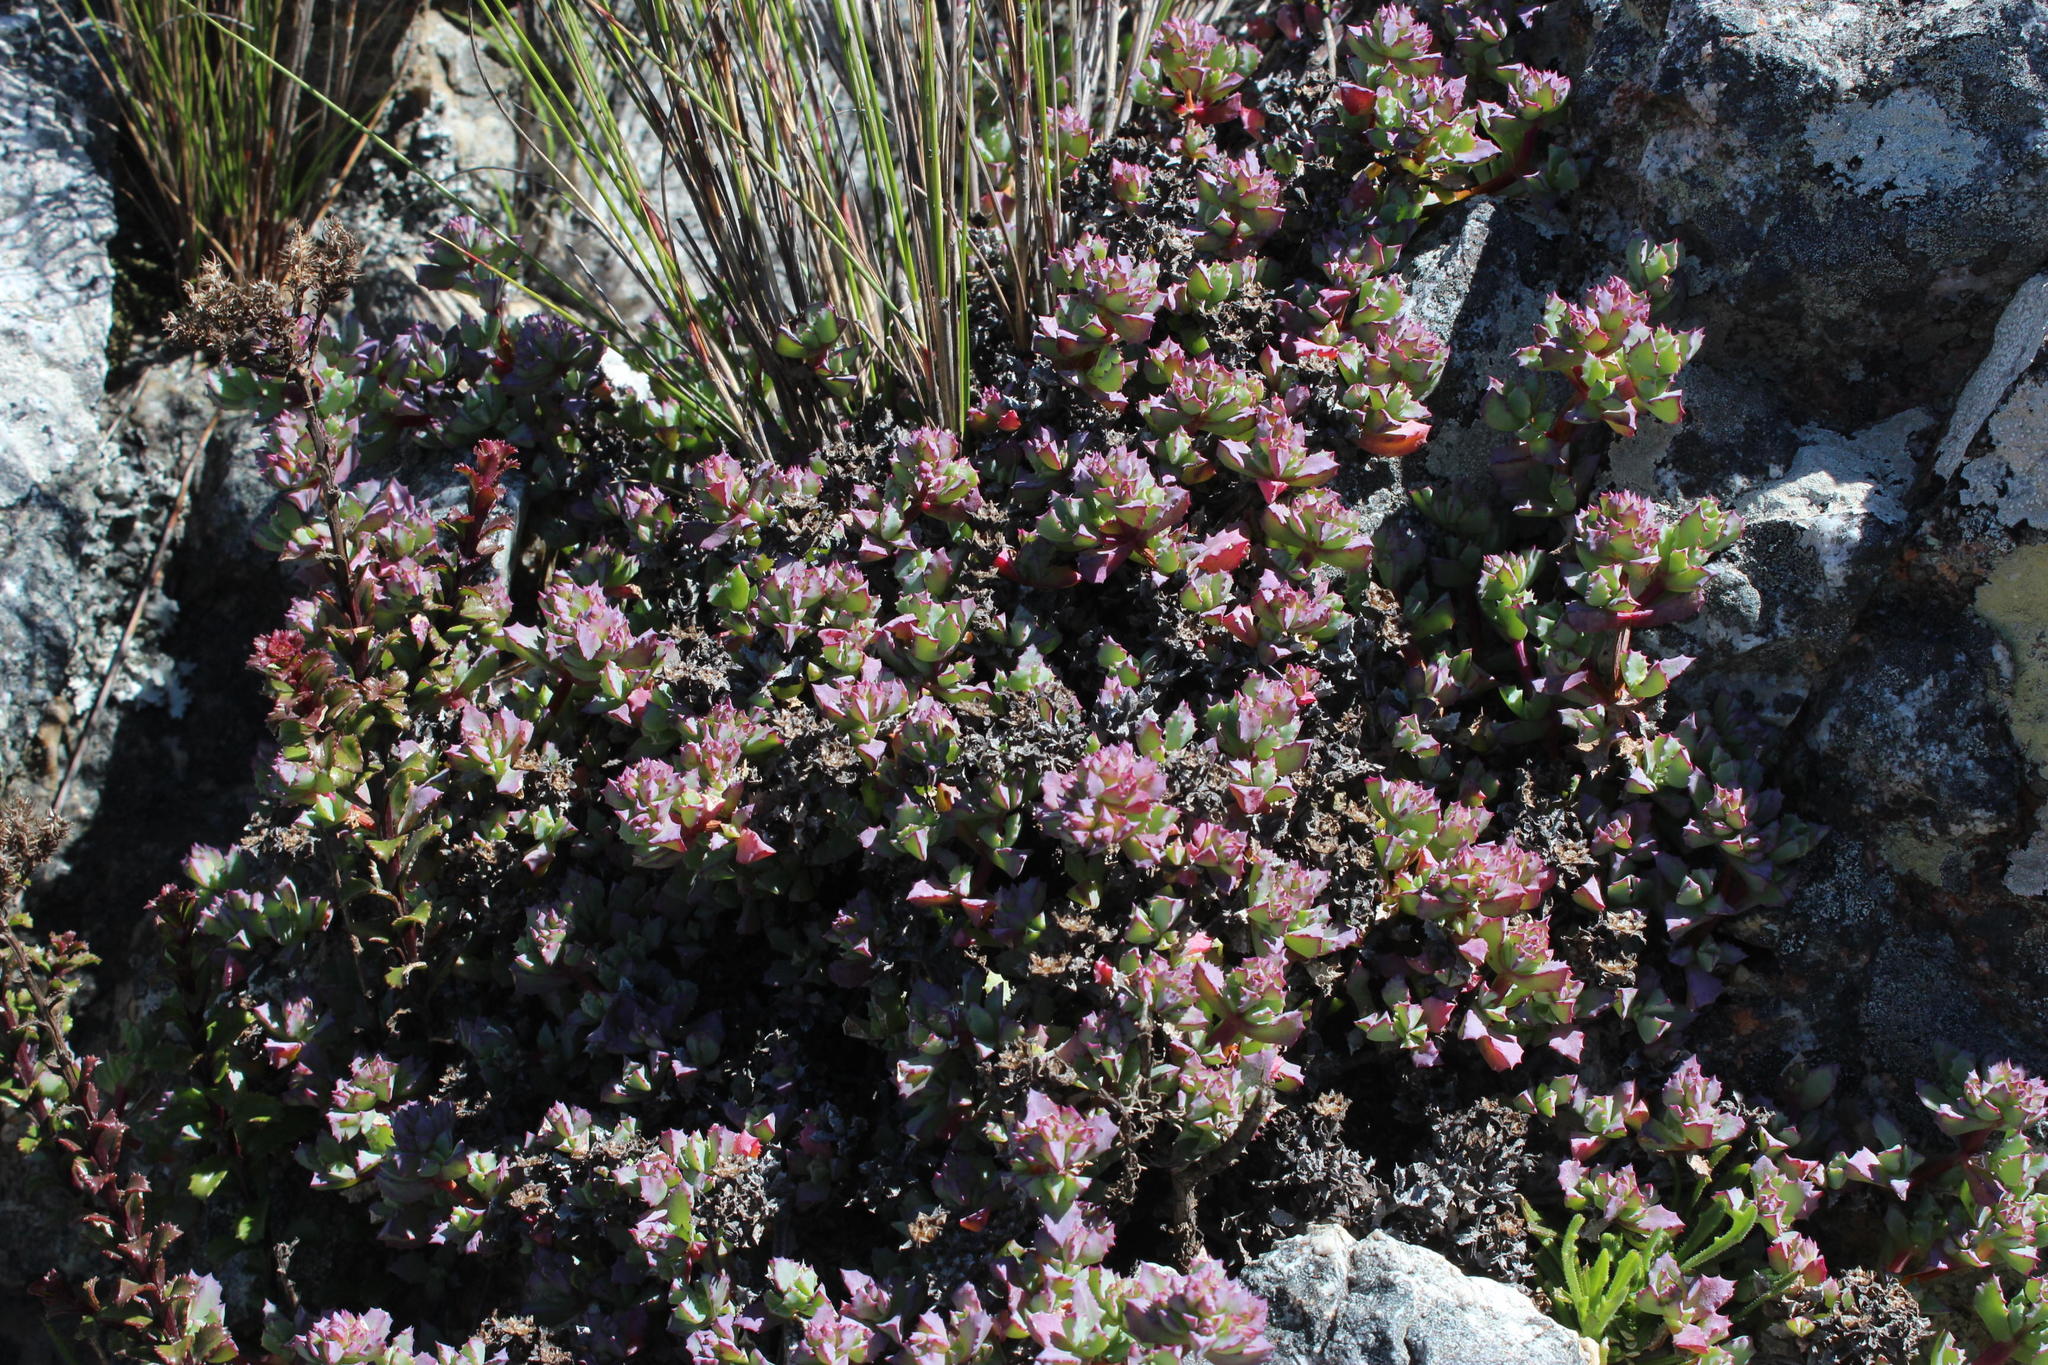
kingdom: Plantae
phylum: Tracheophyta
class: Magnoliopsida
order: Caryophyllales
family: Aizoaceae
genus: Oscularia
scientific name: Oscularia deltoides
